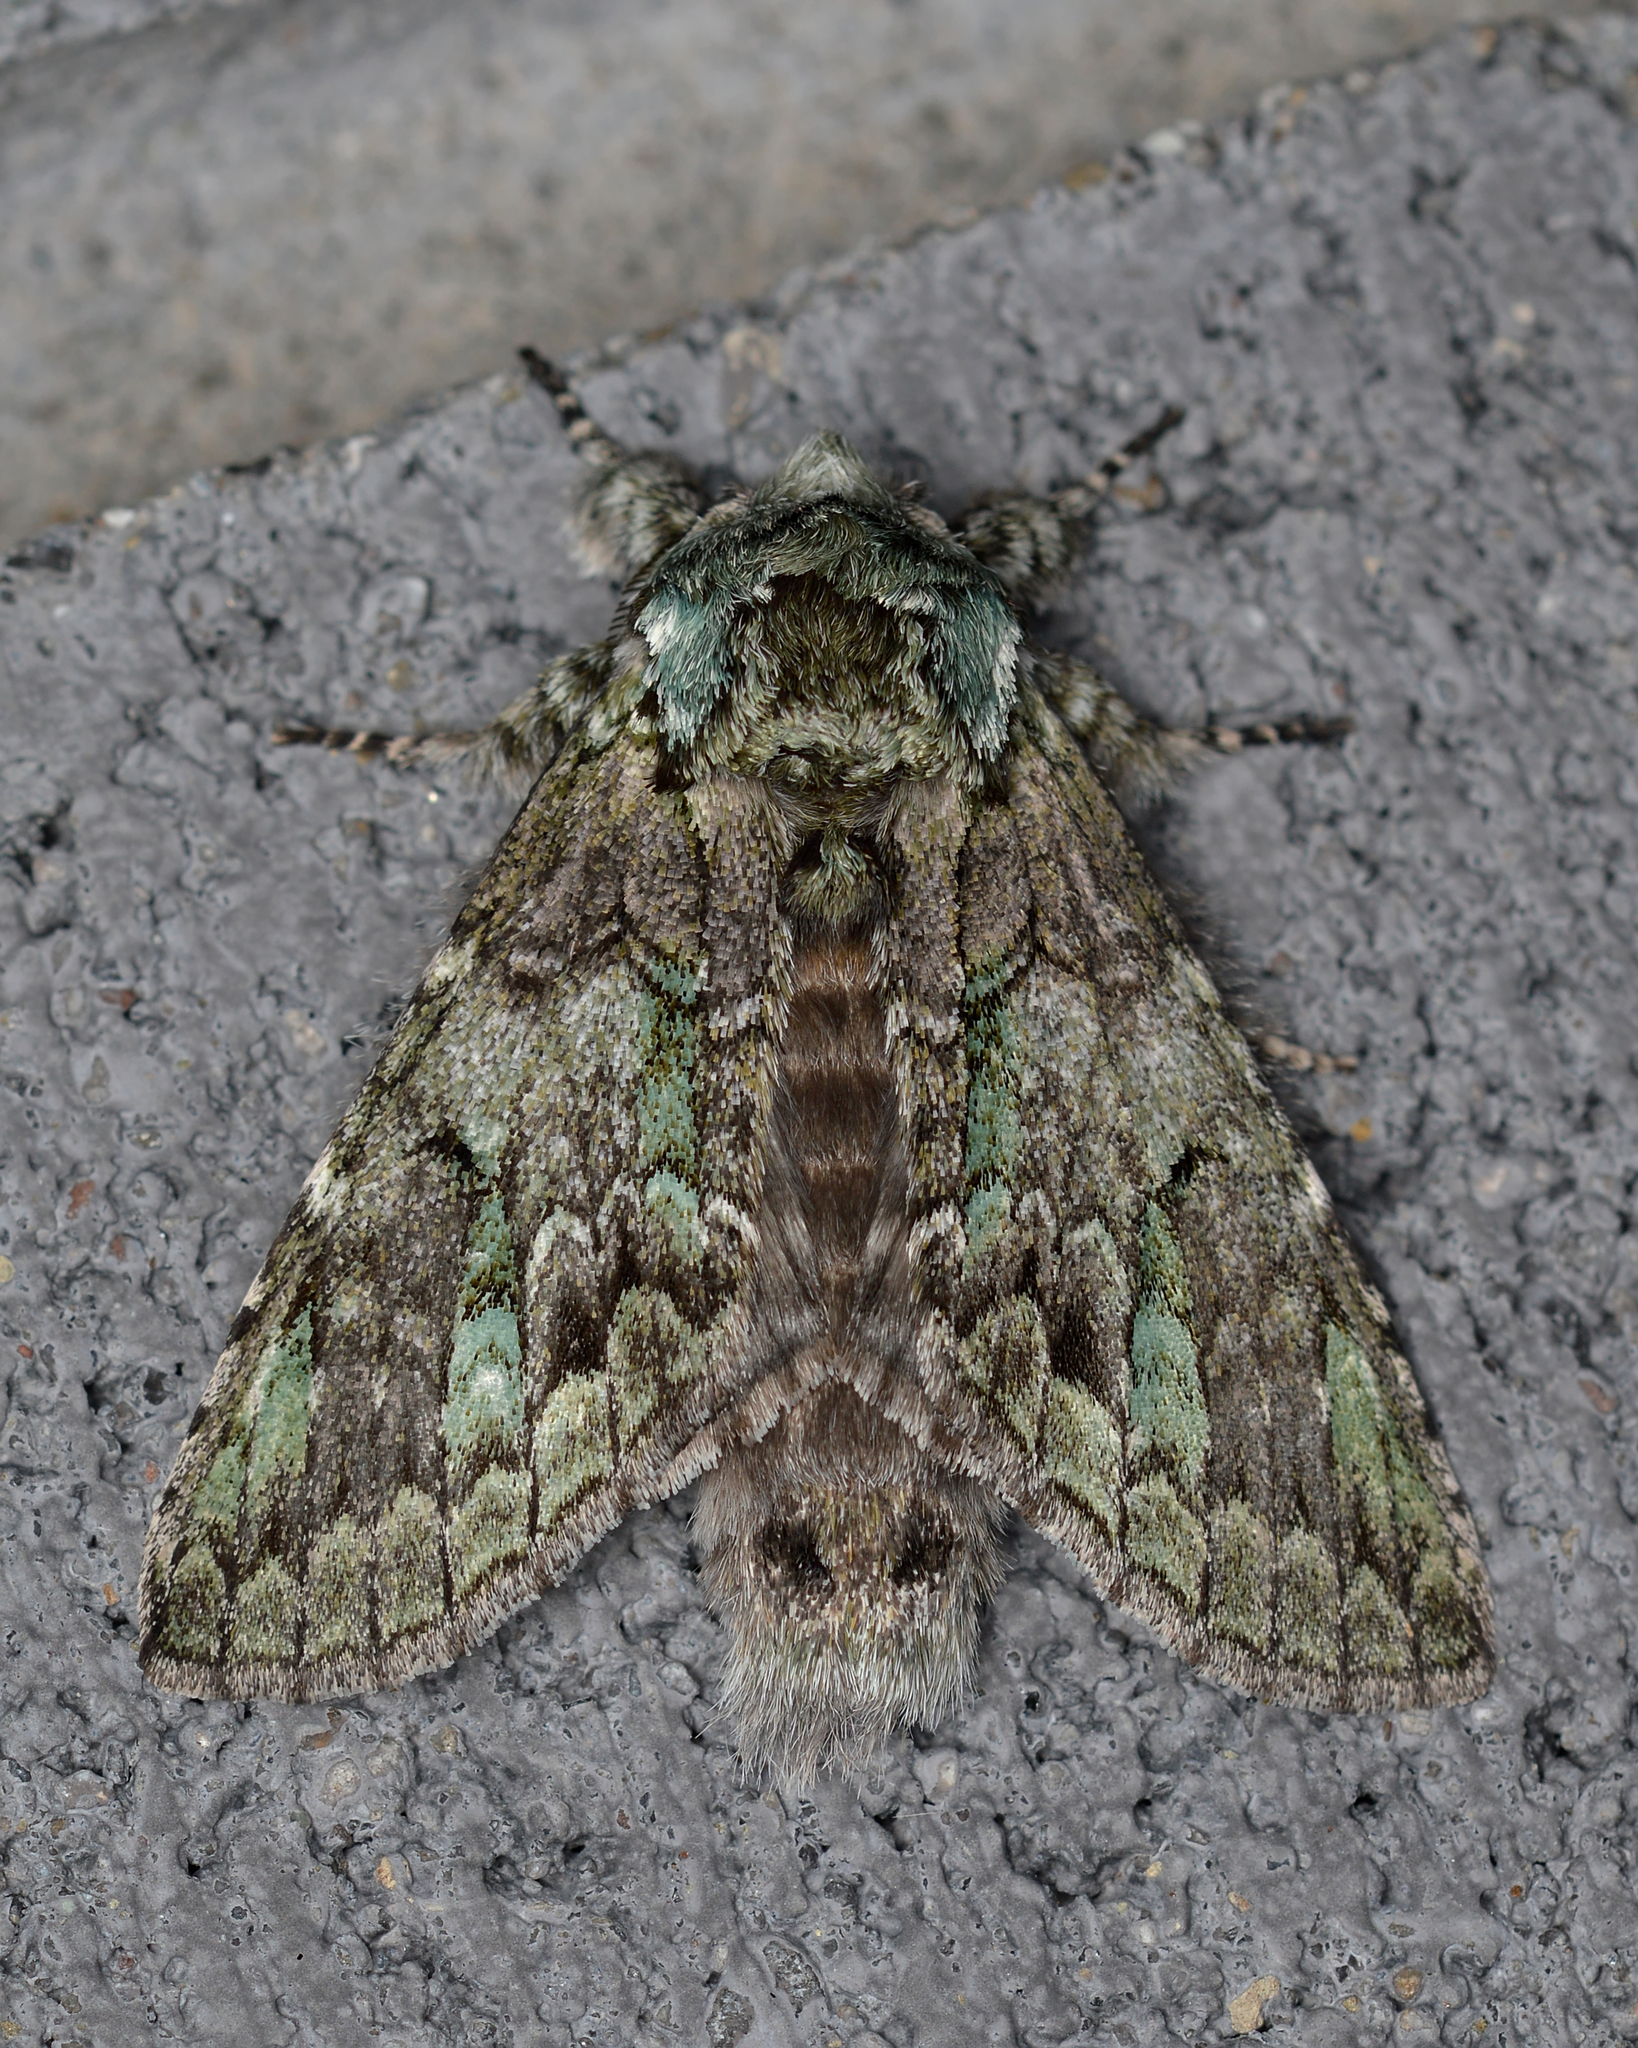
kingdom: Animalia
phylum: Arthropoda
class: Insecta
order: Lepidoptera
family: Notodontidae
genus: Macrurocampa
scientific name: Macrurocampa marthesia
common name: Mottled prominent
